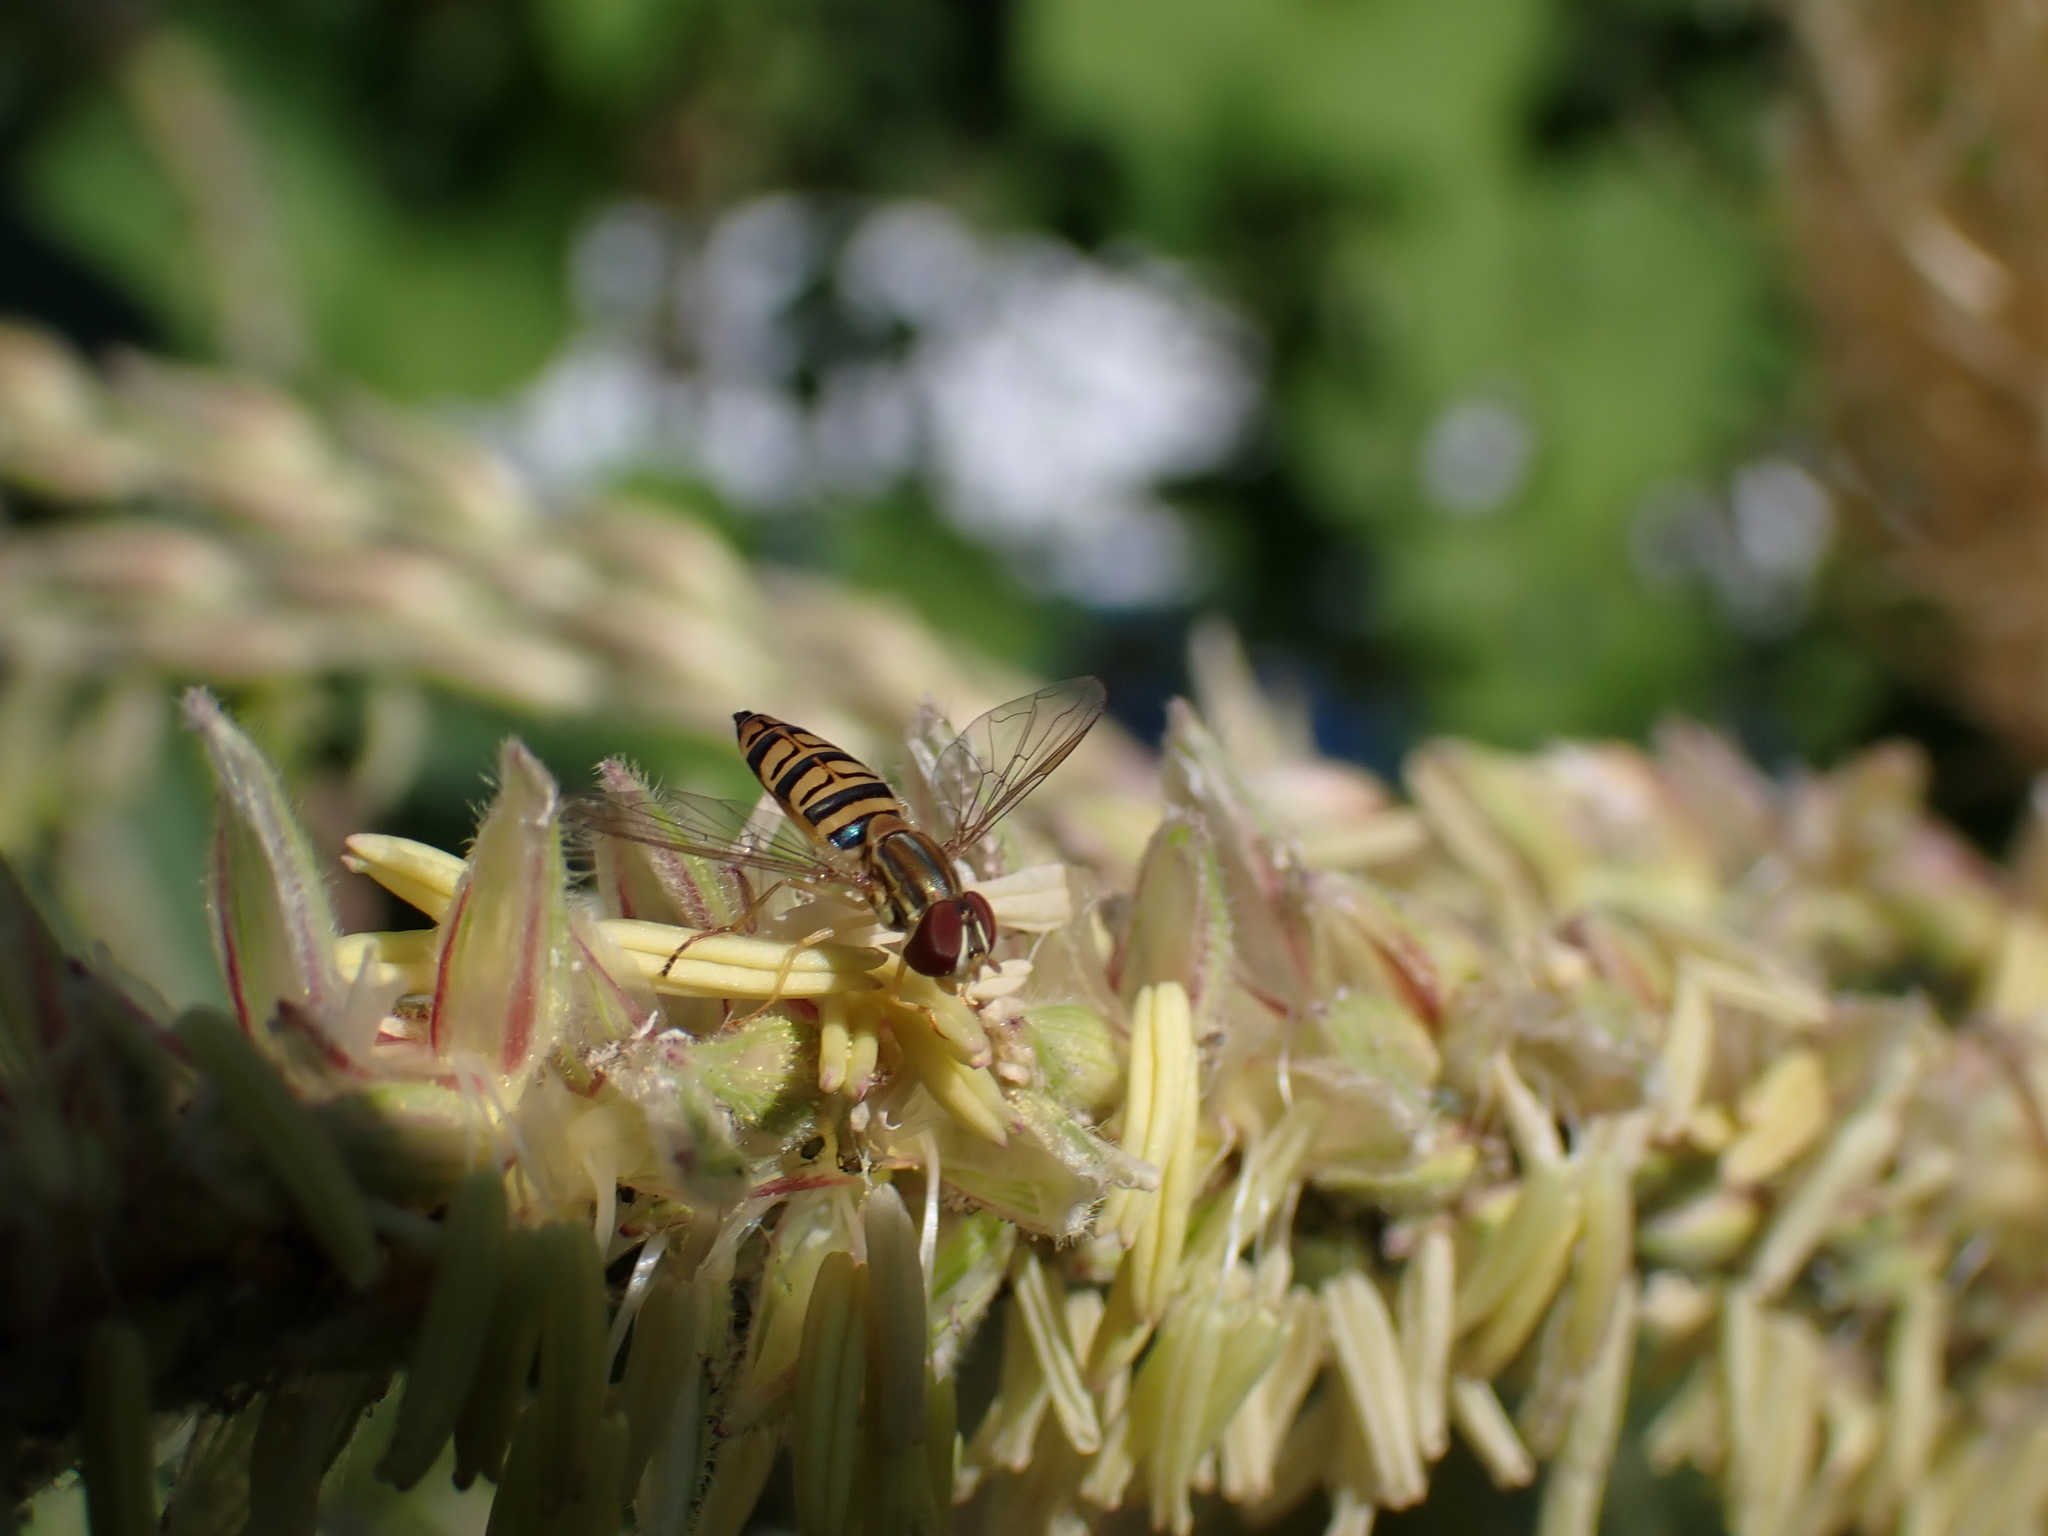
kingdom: Animalia
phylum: Arthropoda
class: Insecta
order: Diptera
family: Syrphidae
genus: Toxomerus
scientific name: Toxomerus politus
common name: Maize calligrapher
